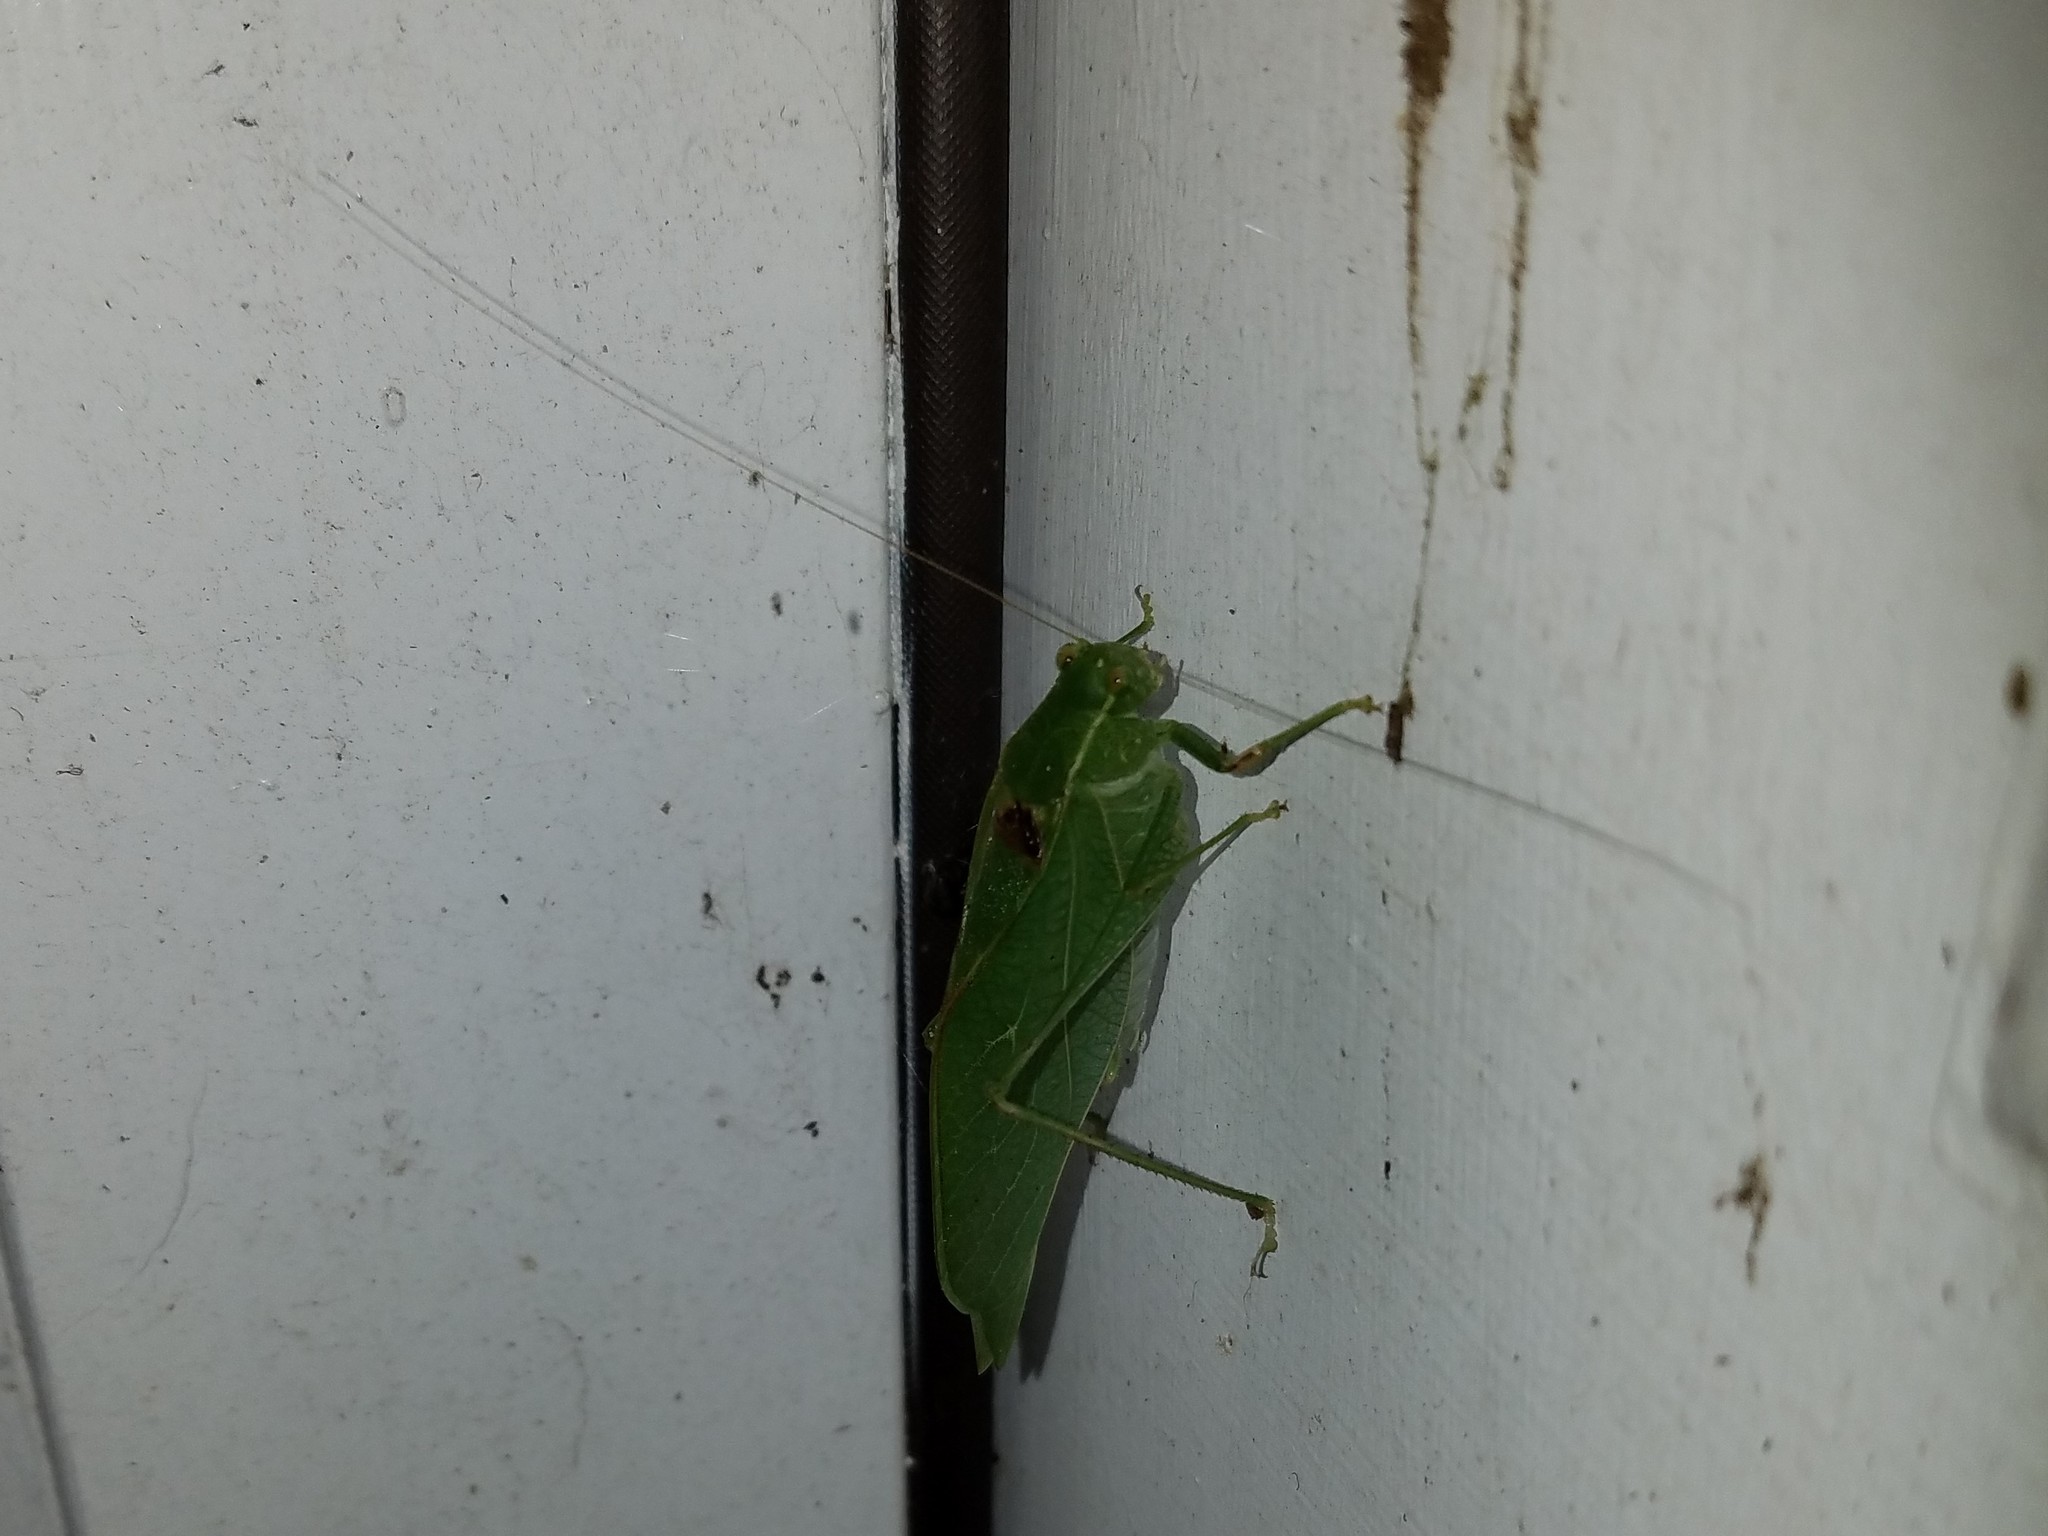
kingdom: Animalia
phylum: Arthropoda
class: Insecta
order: Orthoptera
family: Tettigoniidae
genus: Microcentrum
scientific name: Microcentrum retinerve
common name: Angular-winged katydid
